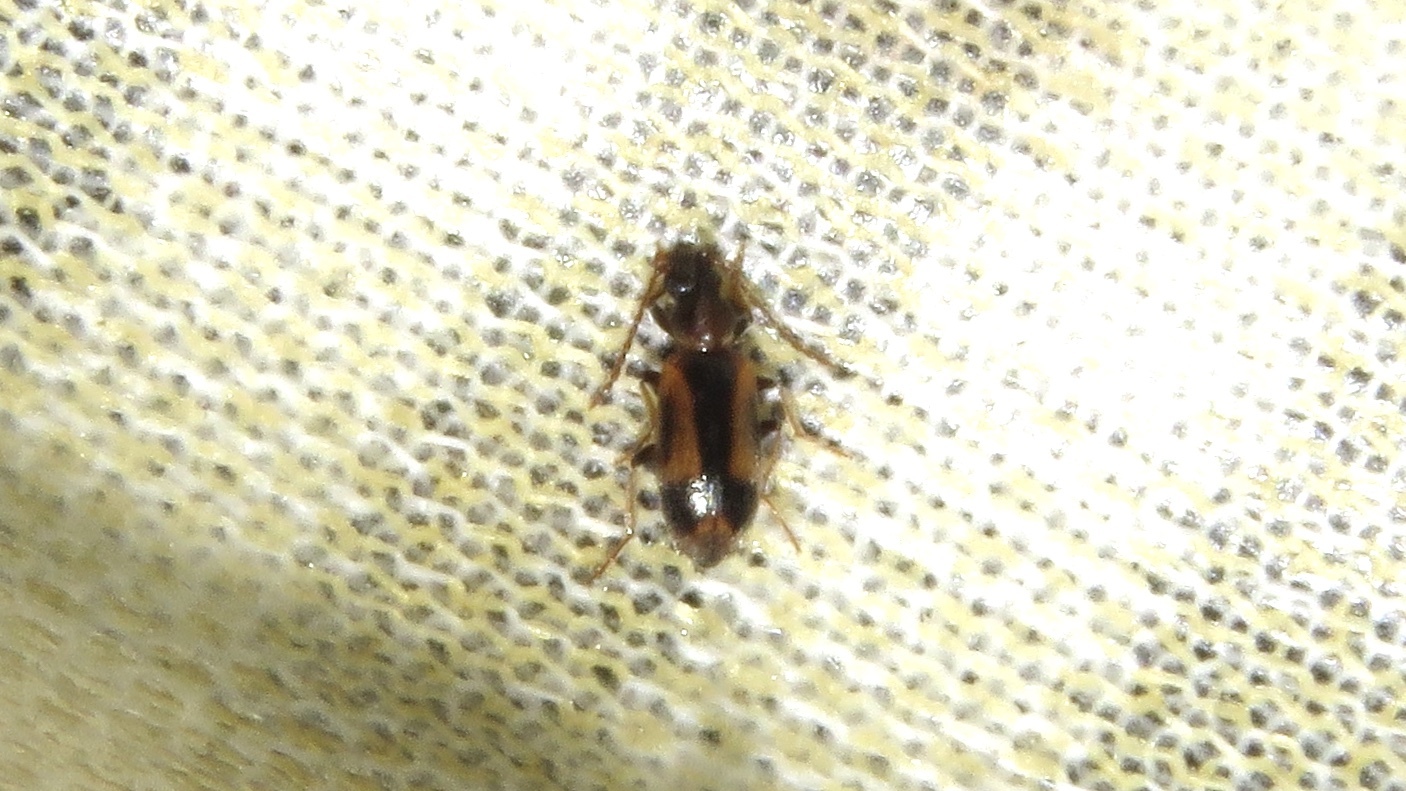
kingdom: Animalia
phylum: Arthropoda
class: Insecta
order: Coleoptera
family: Anthicidae
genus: Notoxus
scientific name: Notoxus anchora
